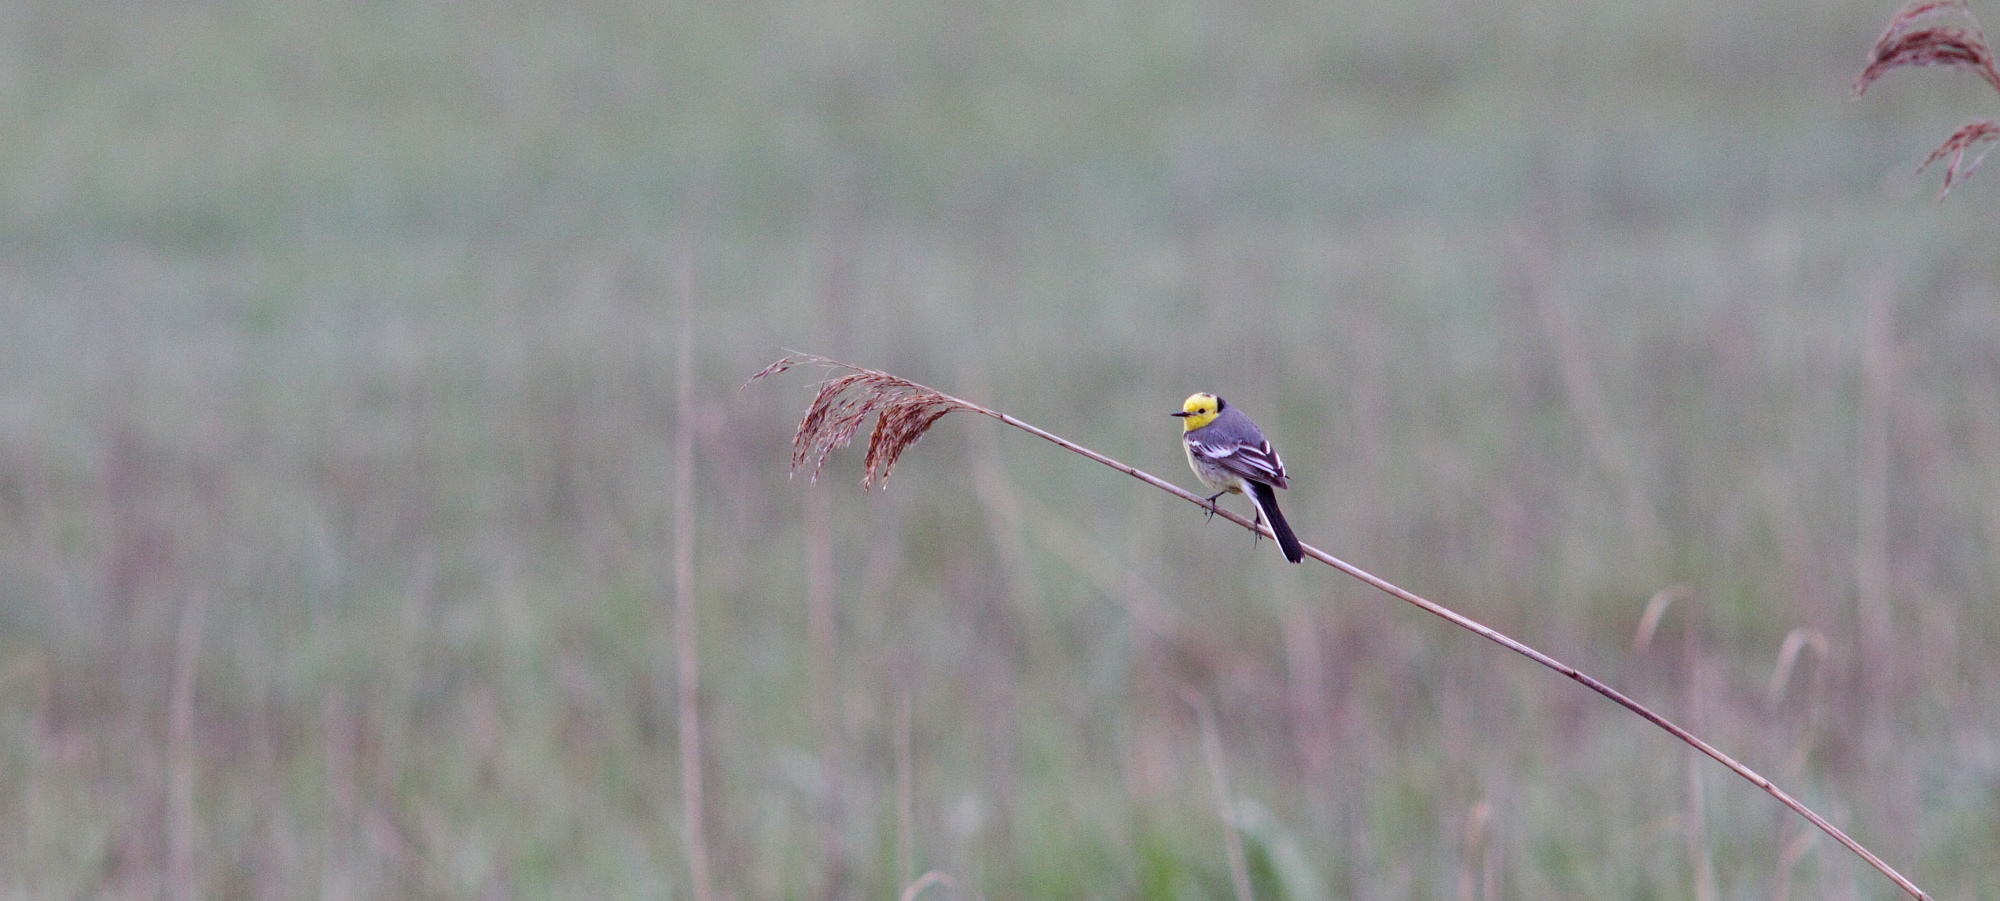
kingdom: Animalia
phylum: Chordata
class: Aves
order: Passeriformes
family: Motacillidae
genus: Motacilla
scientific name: Motacilla citreola
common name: Citrine wagtail
